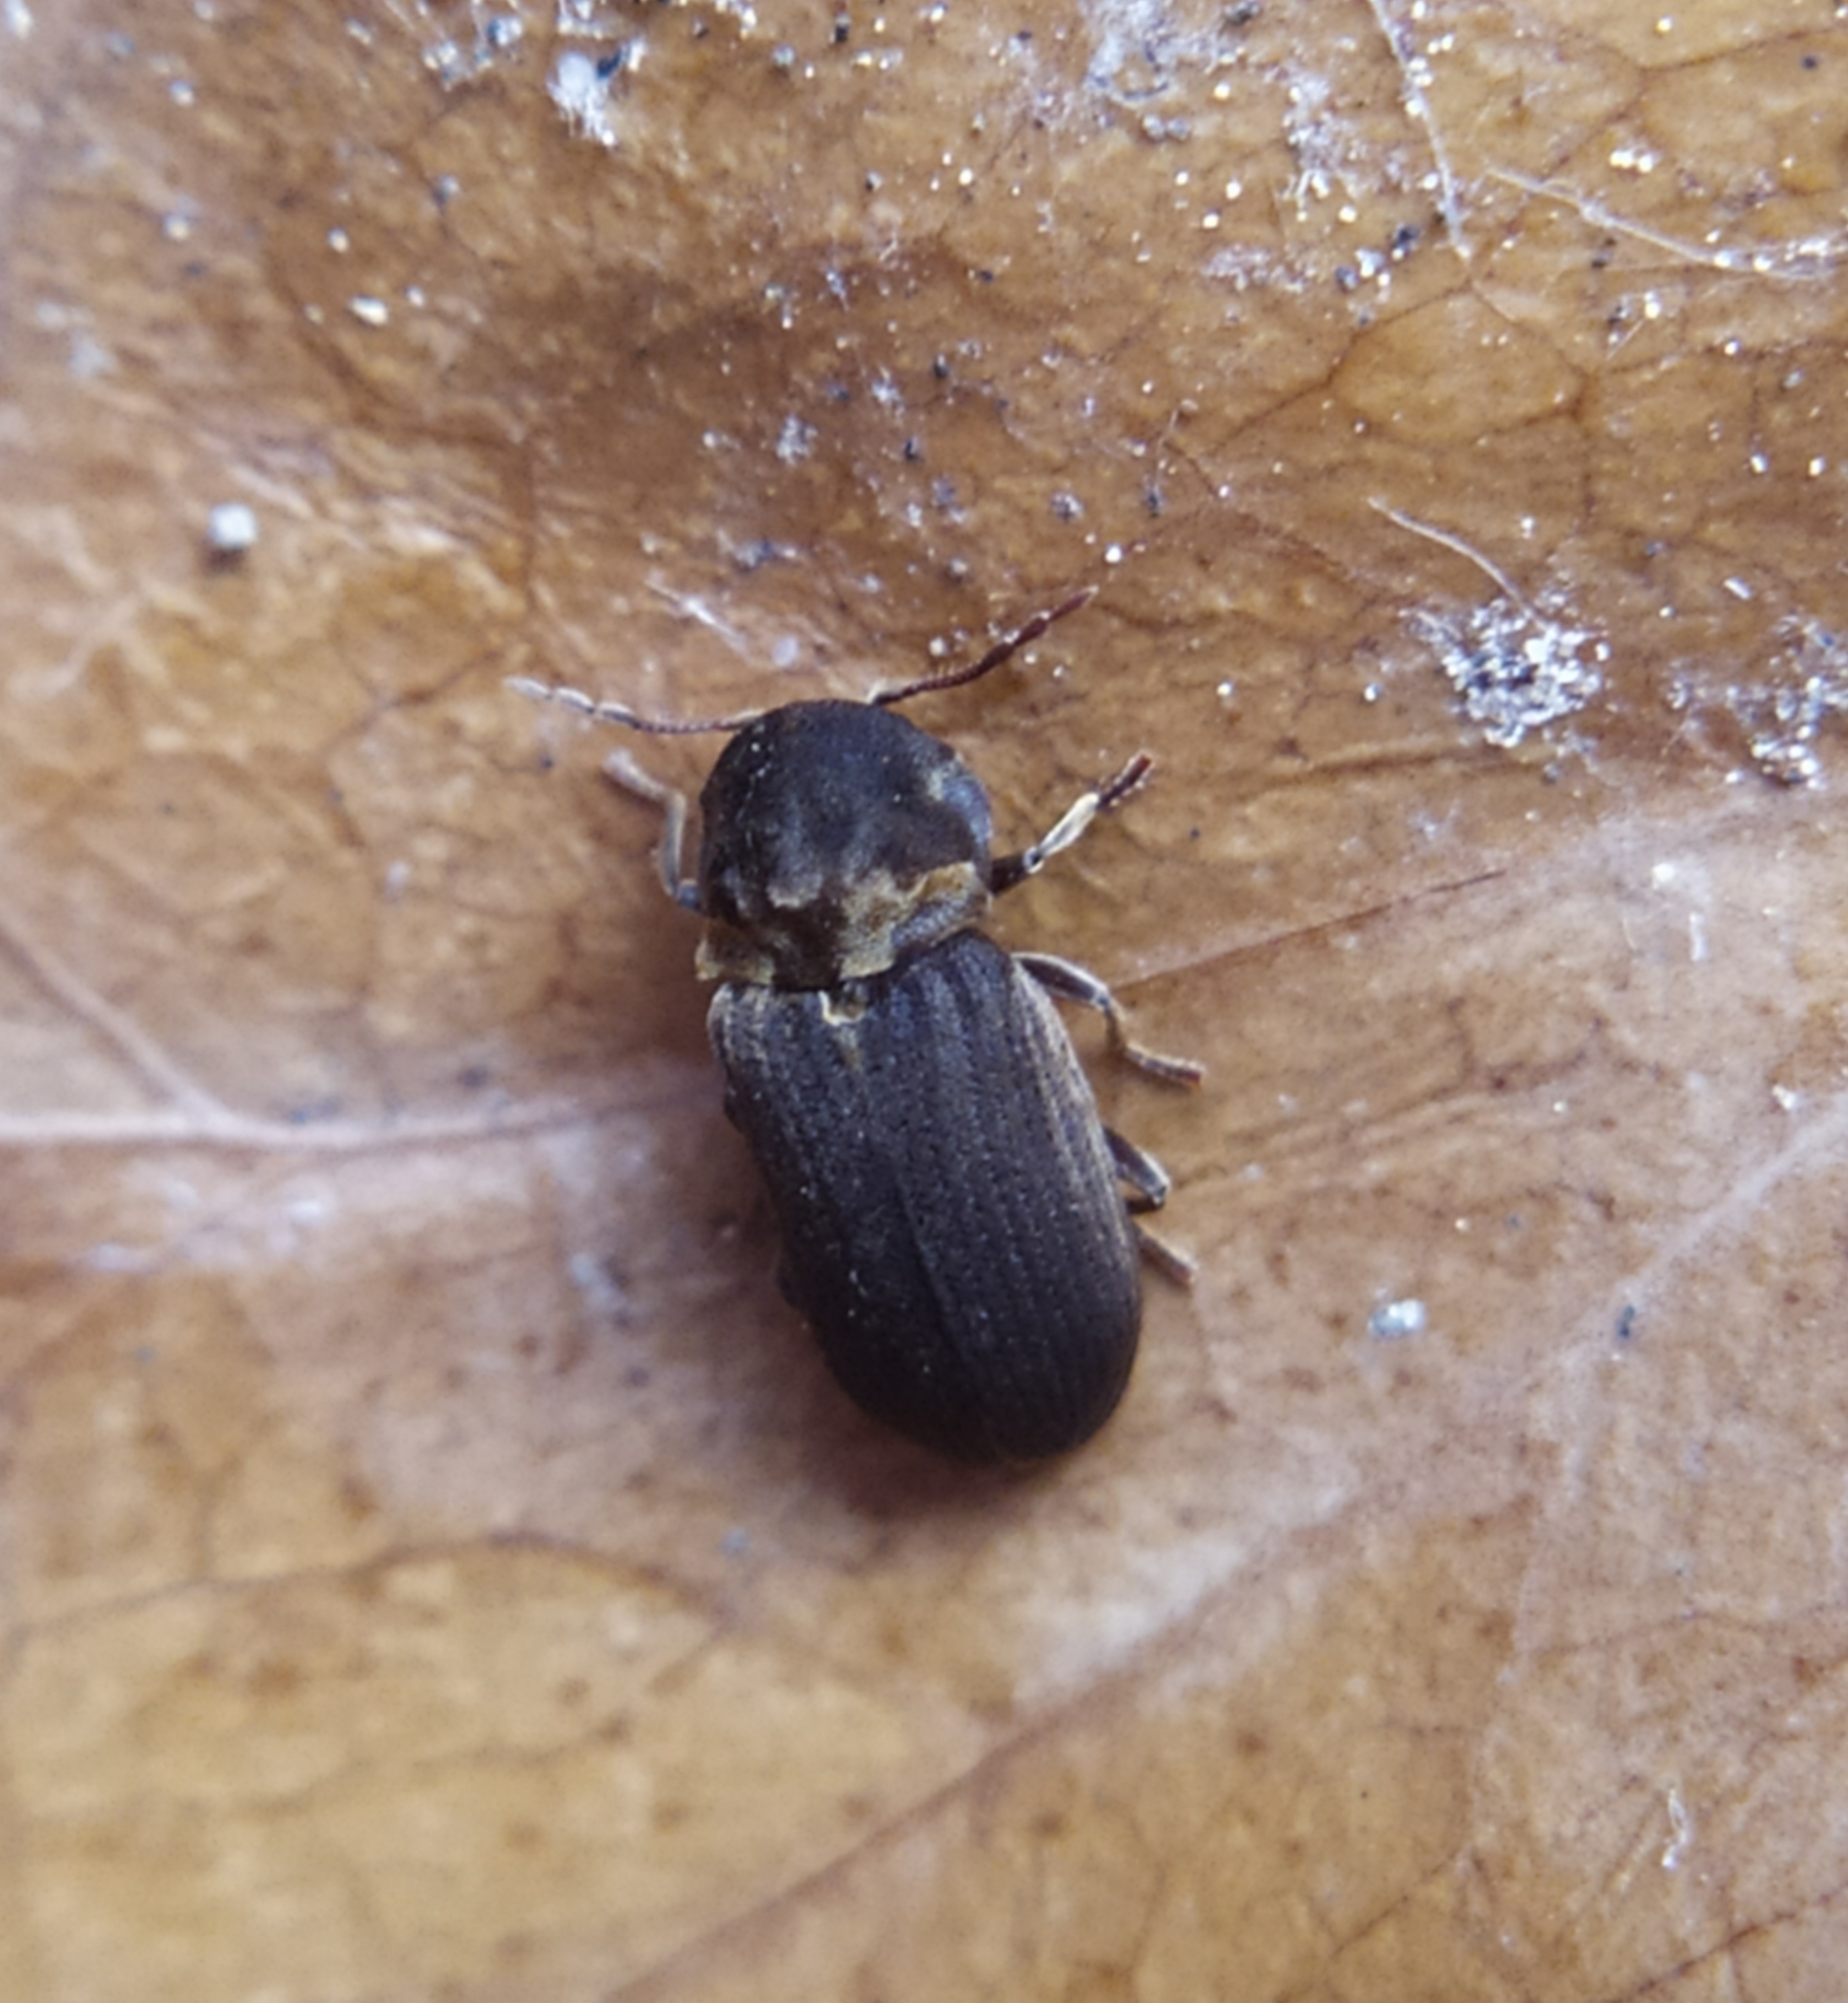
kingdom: Animalia
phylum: Arthropoda
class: Insecta
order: Coleoptera
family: Anobiidae
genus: Hadrobregmus
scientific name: Hadrobregmus denticollis
